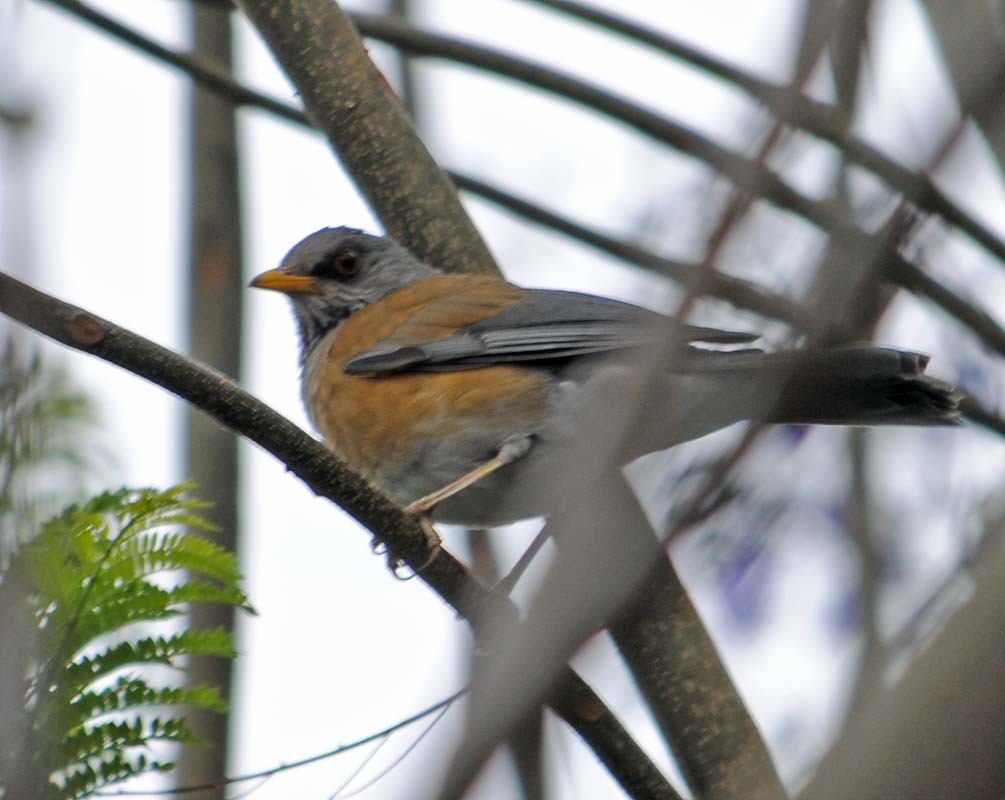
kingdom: Animalia
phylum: Chordata
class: Aves
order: Passeriformes
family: Turdidae
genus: Turdus
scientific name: Turdus rufopalliatus
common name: Rufous-backed robin
